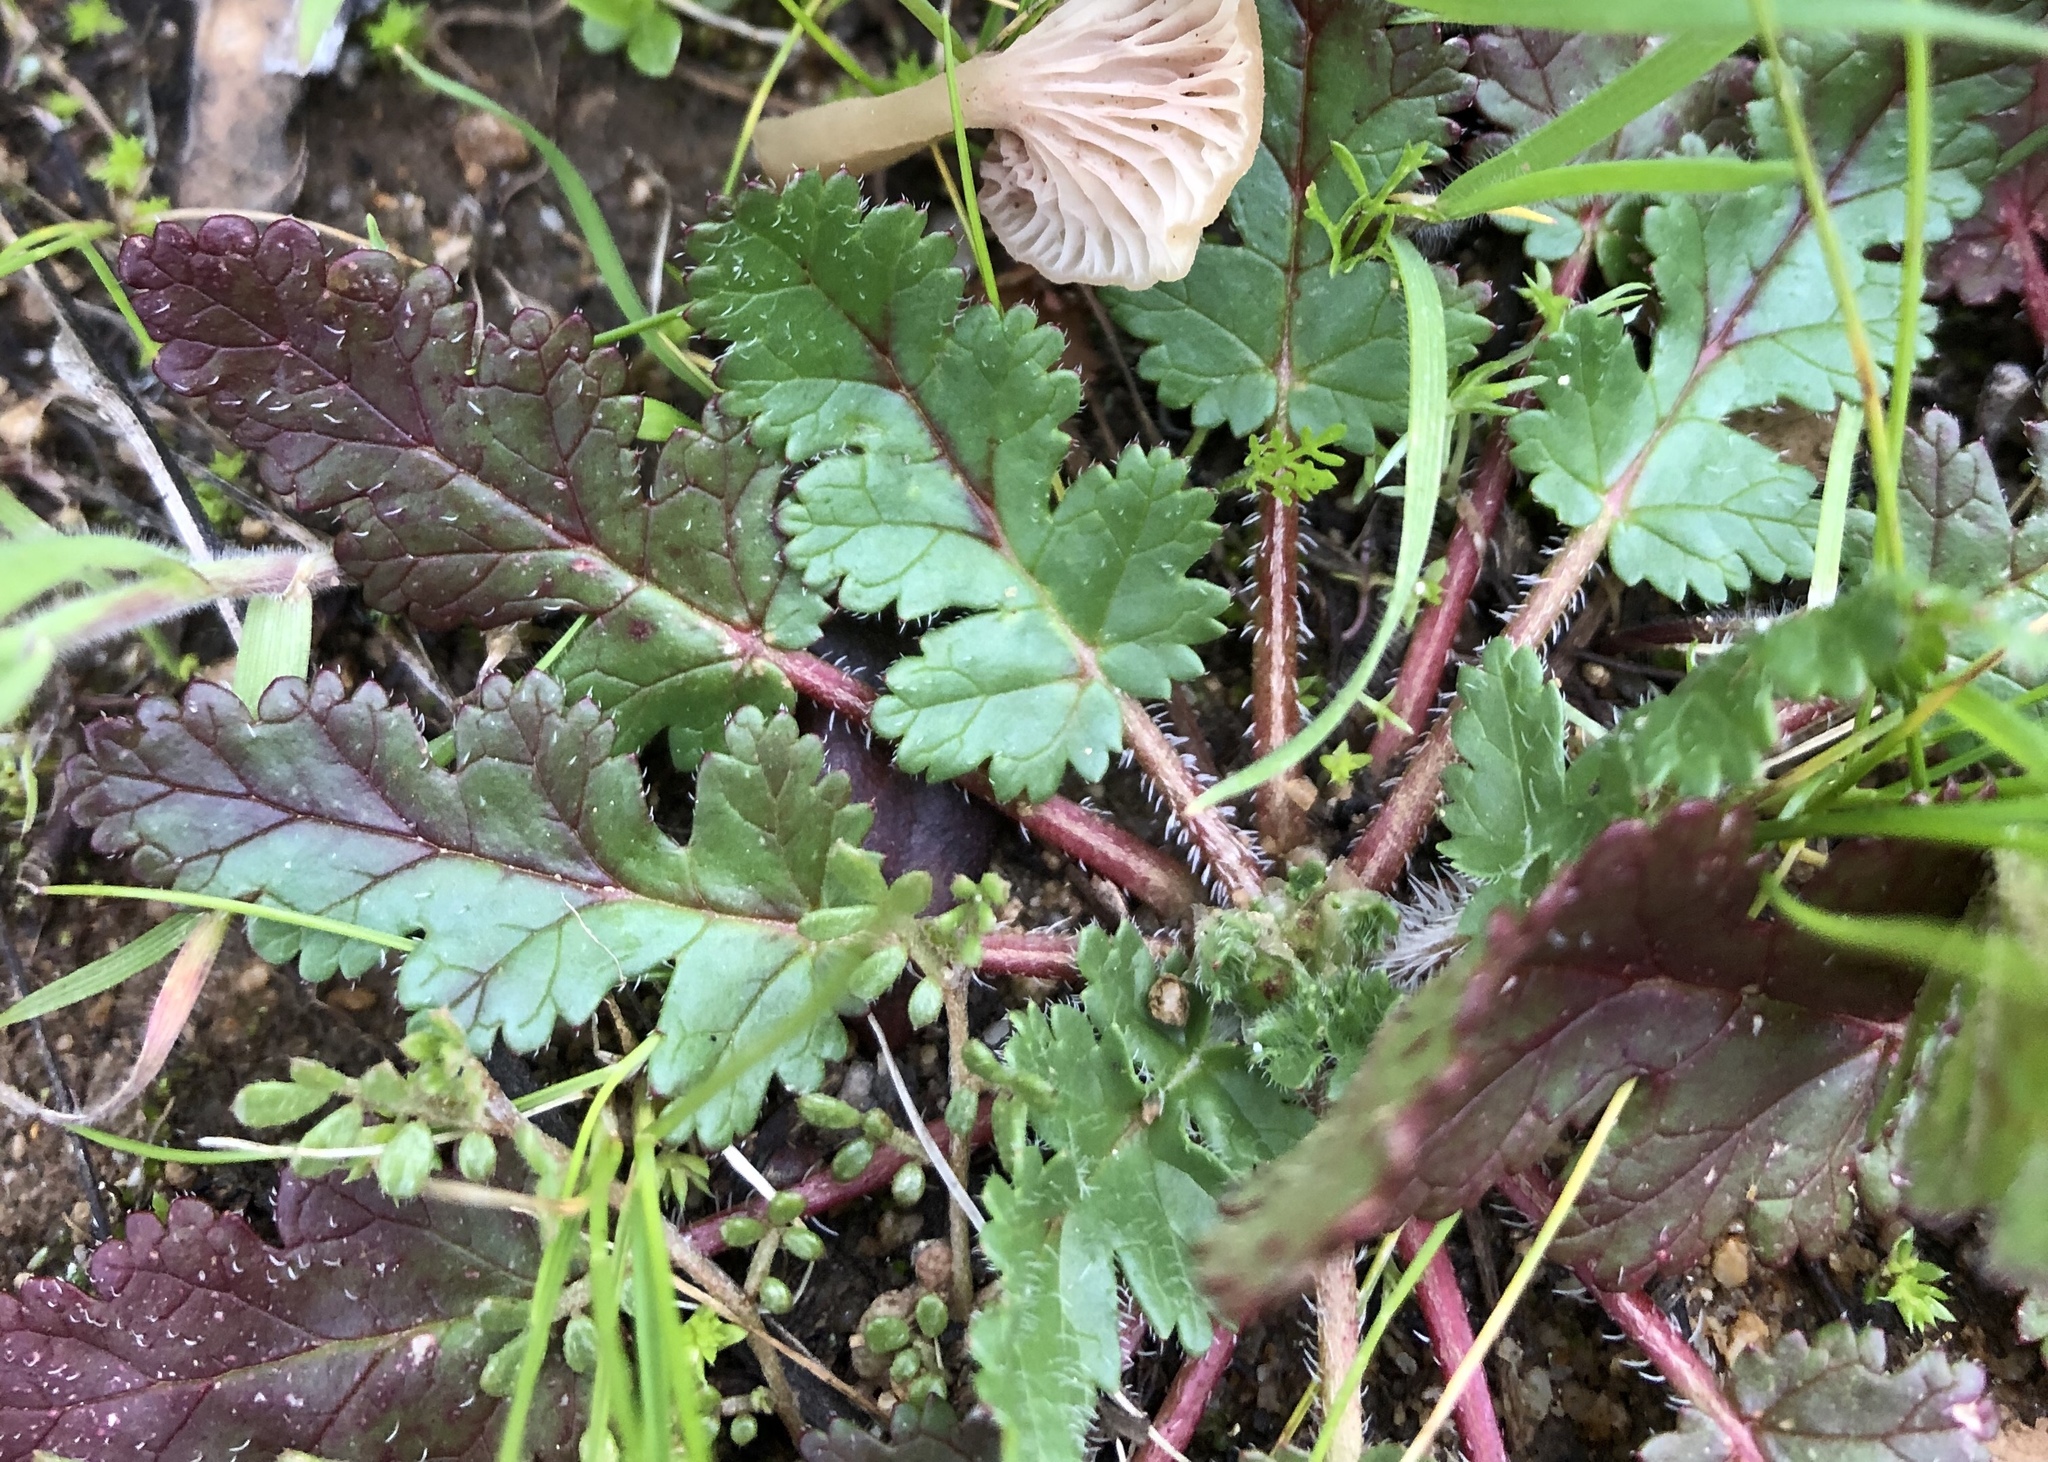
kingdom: Plantae
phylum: Tracheophyta
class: Magnoliopsida
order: Geraniales
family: Geraniaceae
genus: Erodium
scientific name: Erodium
